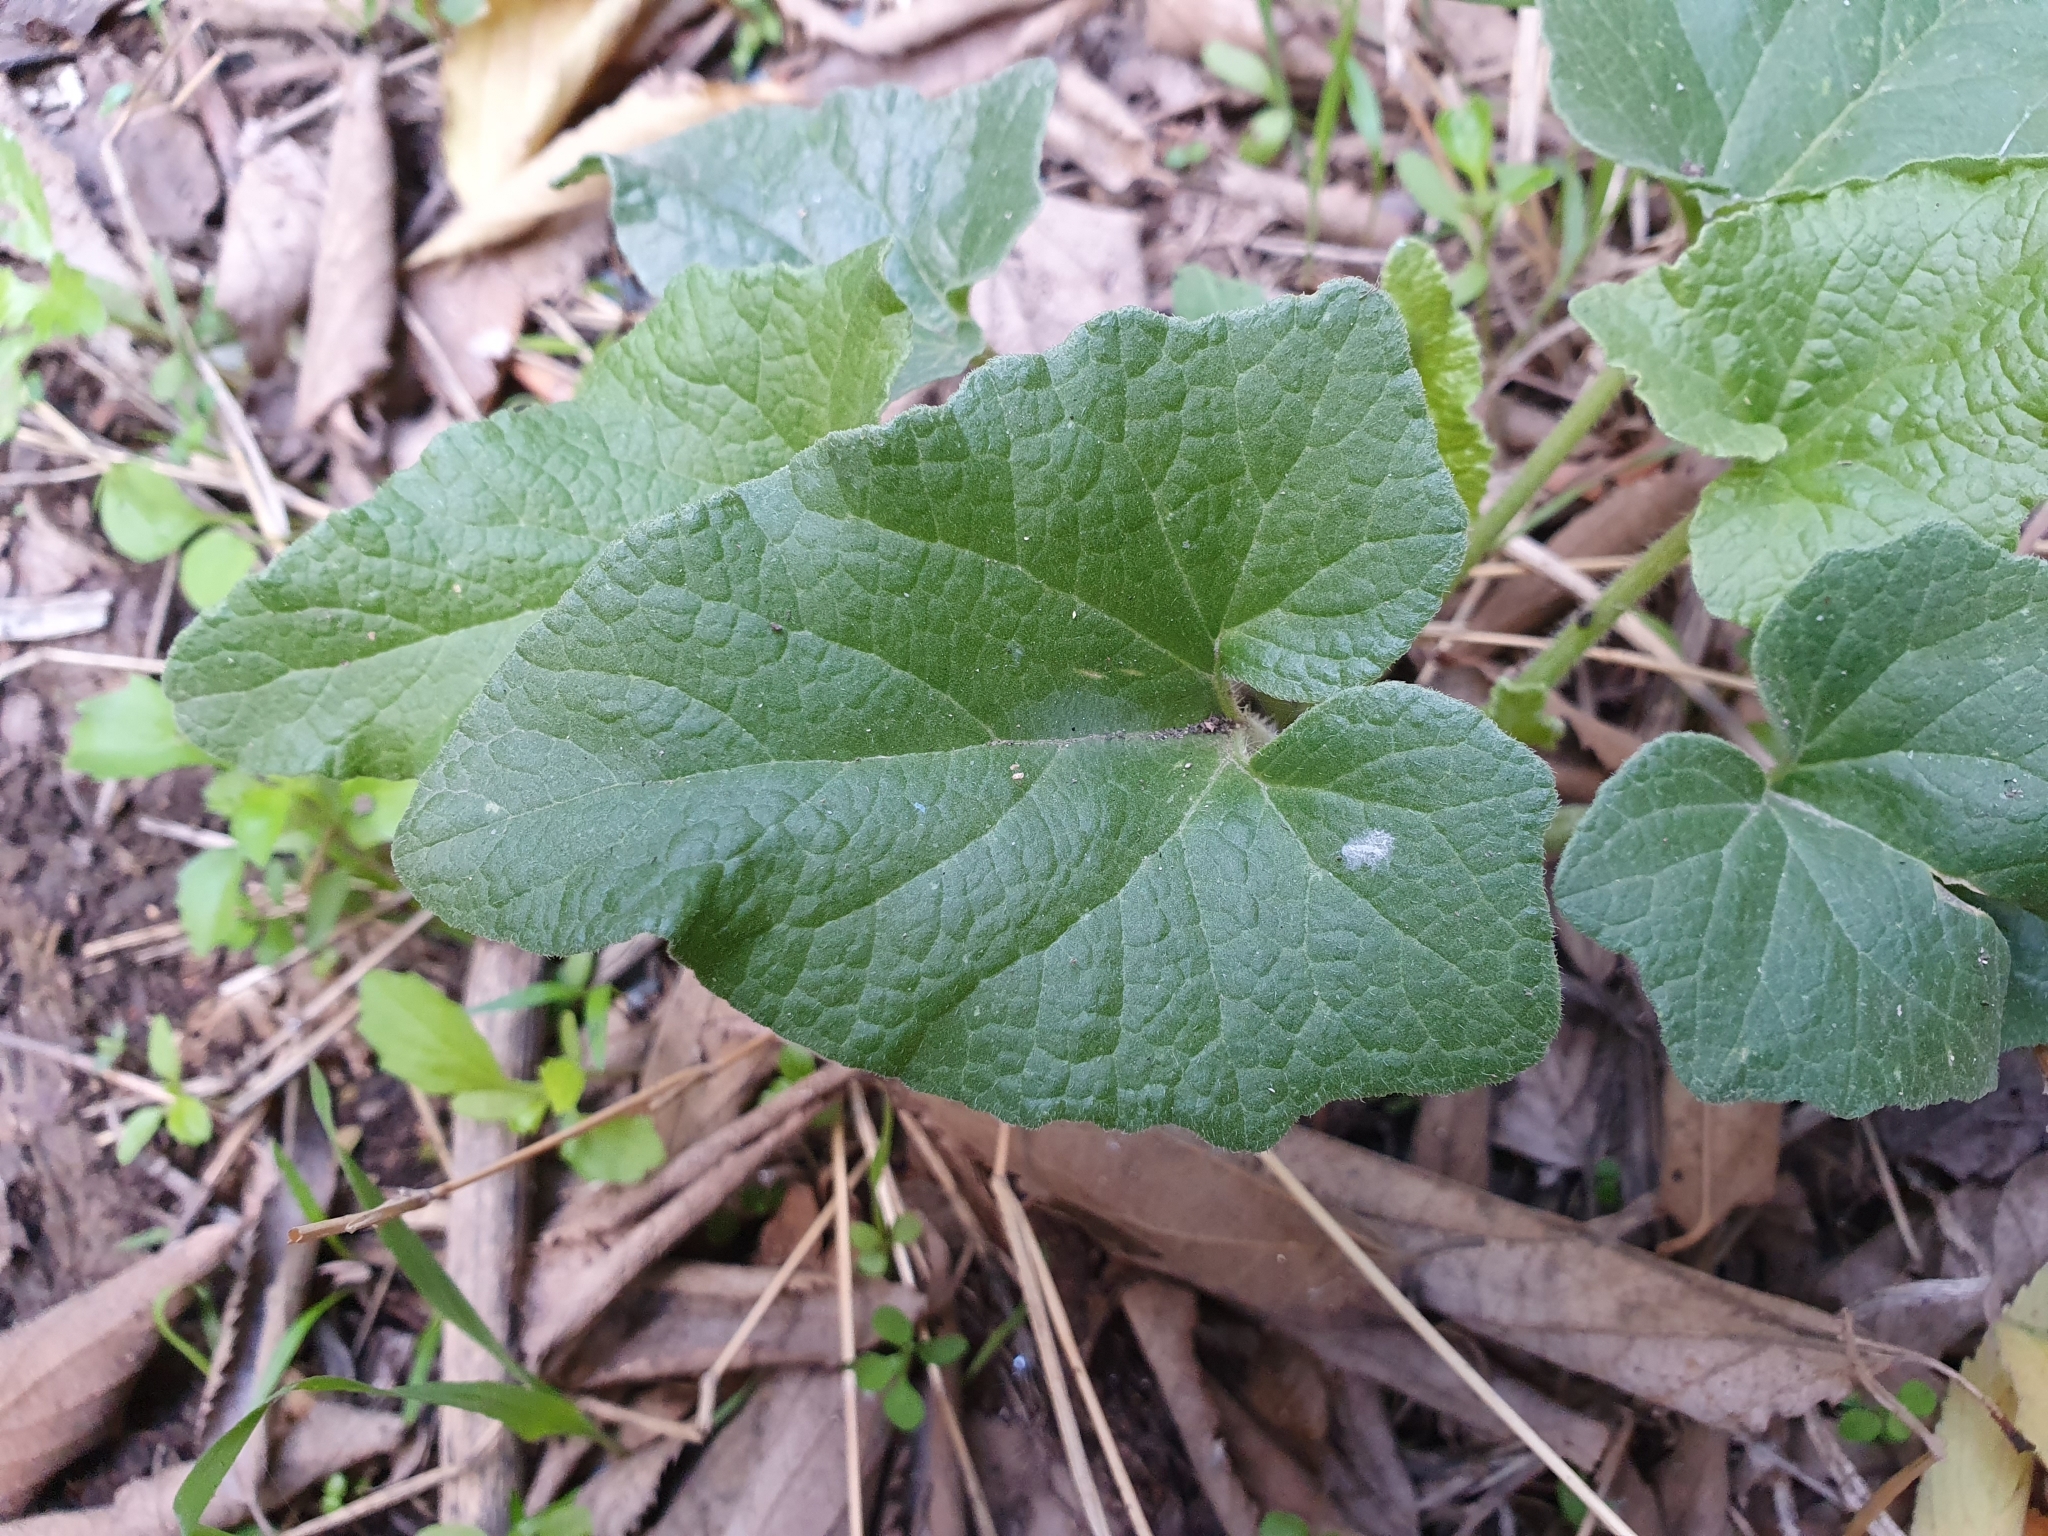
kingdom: Plantae
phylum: Tracheophyta
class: Magnoliopsida
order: Cucurbitales
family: Cucurbitaceae
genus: Ecballium
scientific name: Ecballium elaterium
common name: Squirting cucumber
